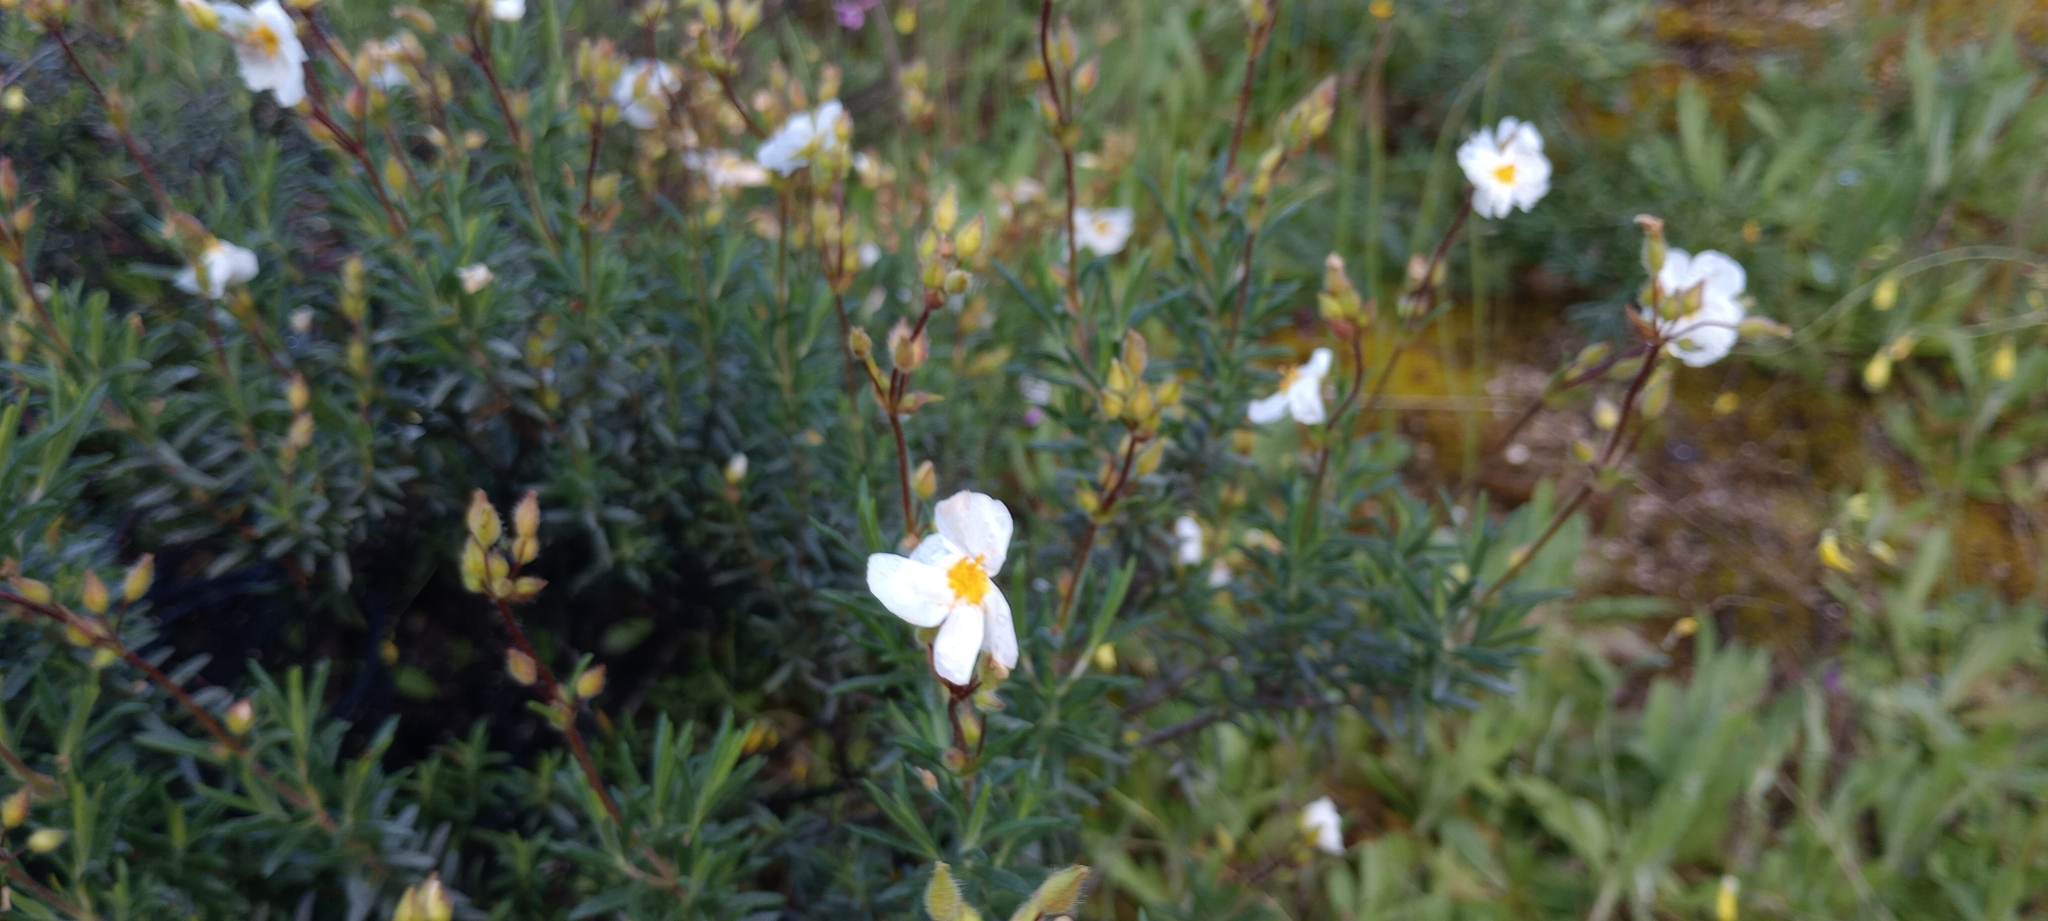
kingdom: Plantae
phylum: Tracheophyta
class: Magnoliopsida
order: Malvales
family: Cistaceae
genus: Halimium
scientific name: Halimium umbellatum
